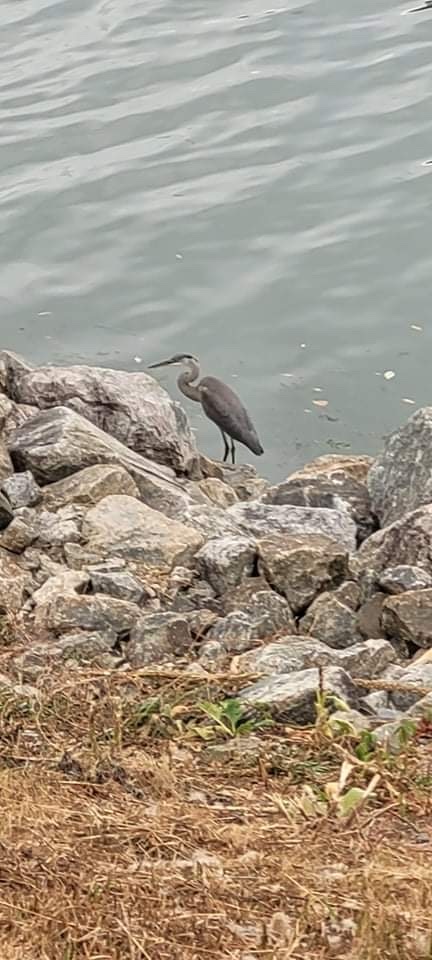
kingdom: Animalia
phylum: Chordata
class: Aves
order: Pelecaniformes
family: Ardeidae
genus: Ardea
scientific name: Ardea herodias
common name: Great blue heron
